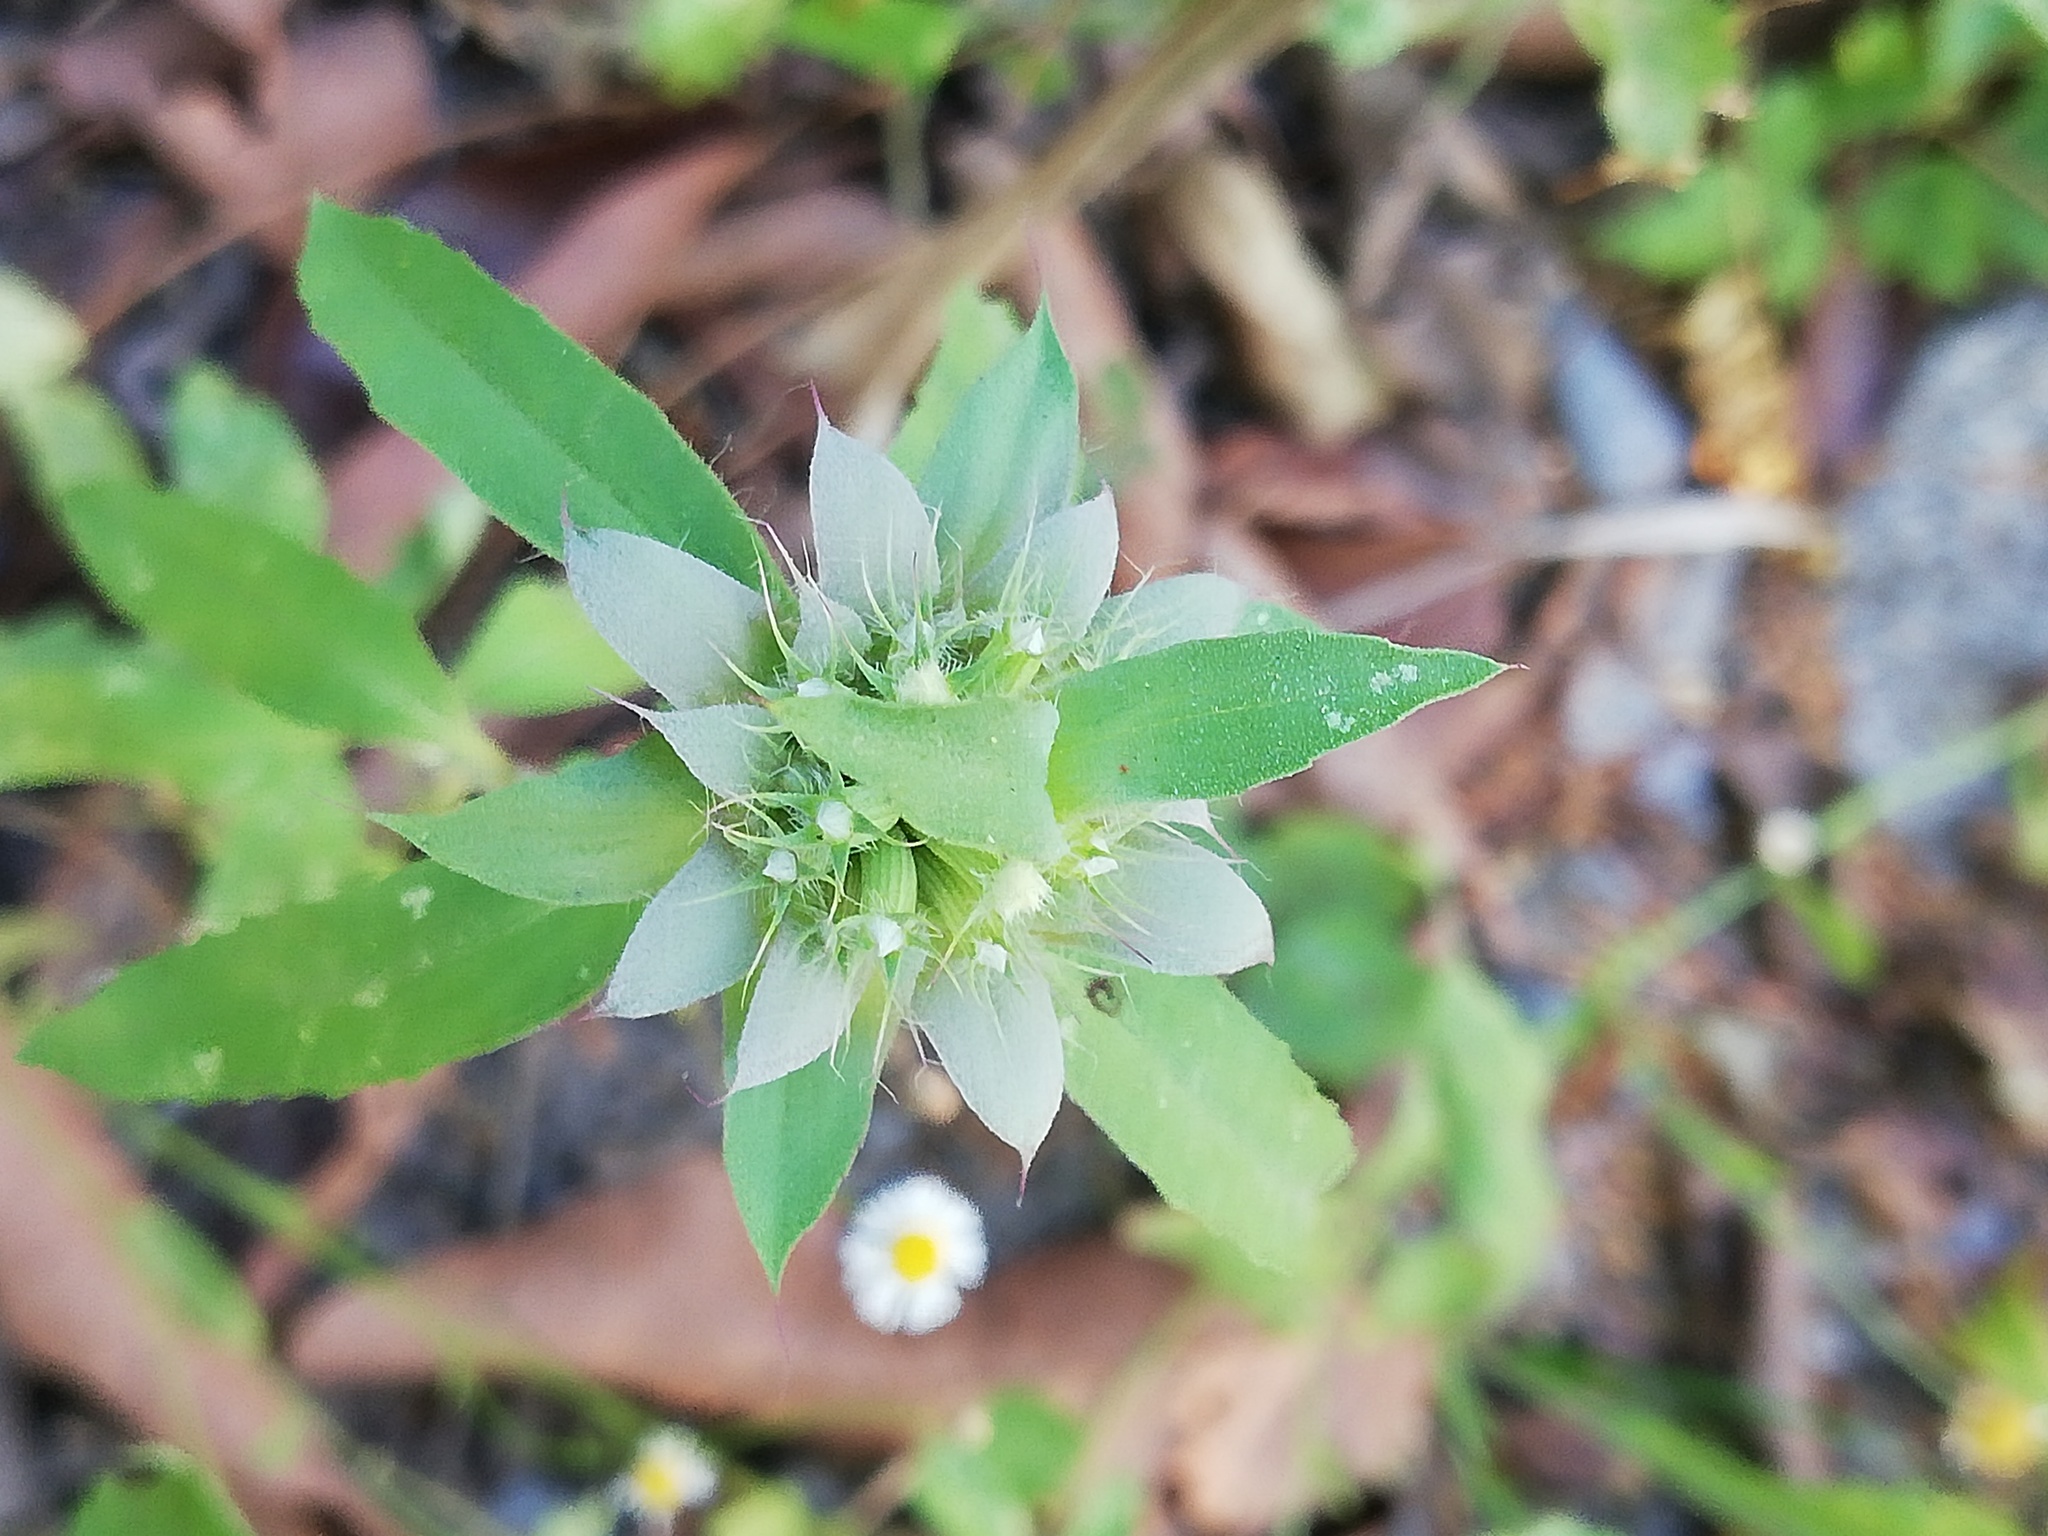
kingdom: Plantae
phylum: Tracheophyta
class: Magnoliopsida
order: Lamiales
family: Lamiaceae
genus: Monarda
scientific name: Monarda citriodora
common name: Lemon beebalm
